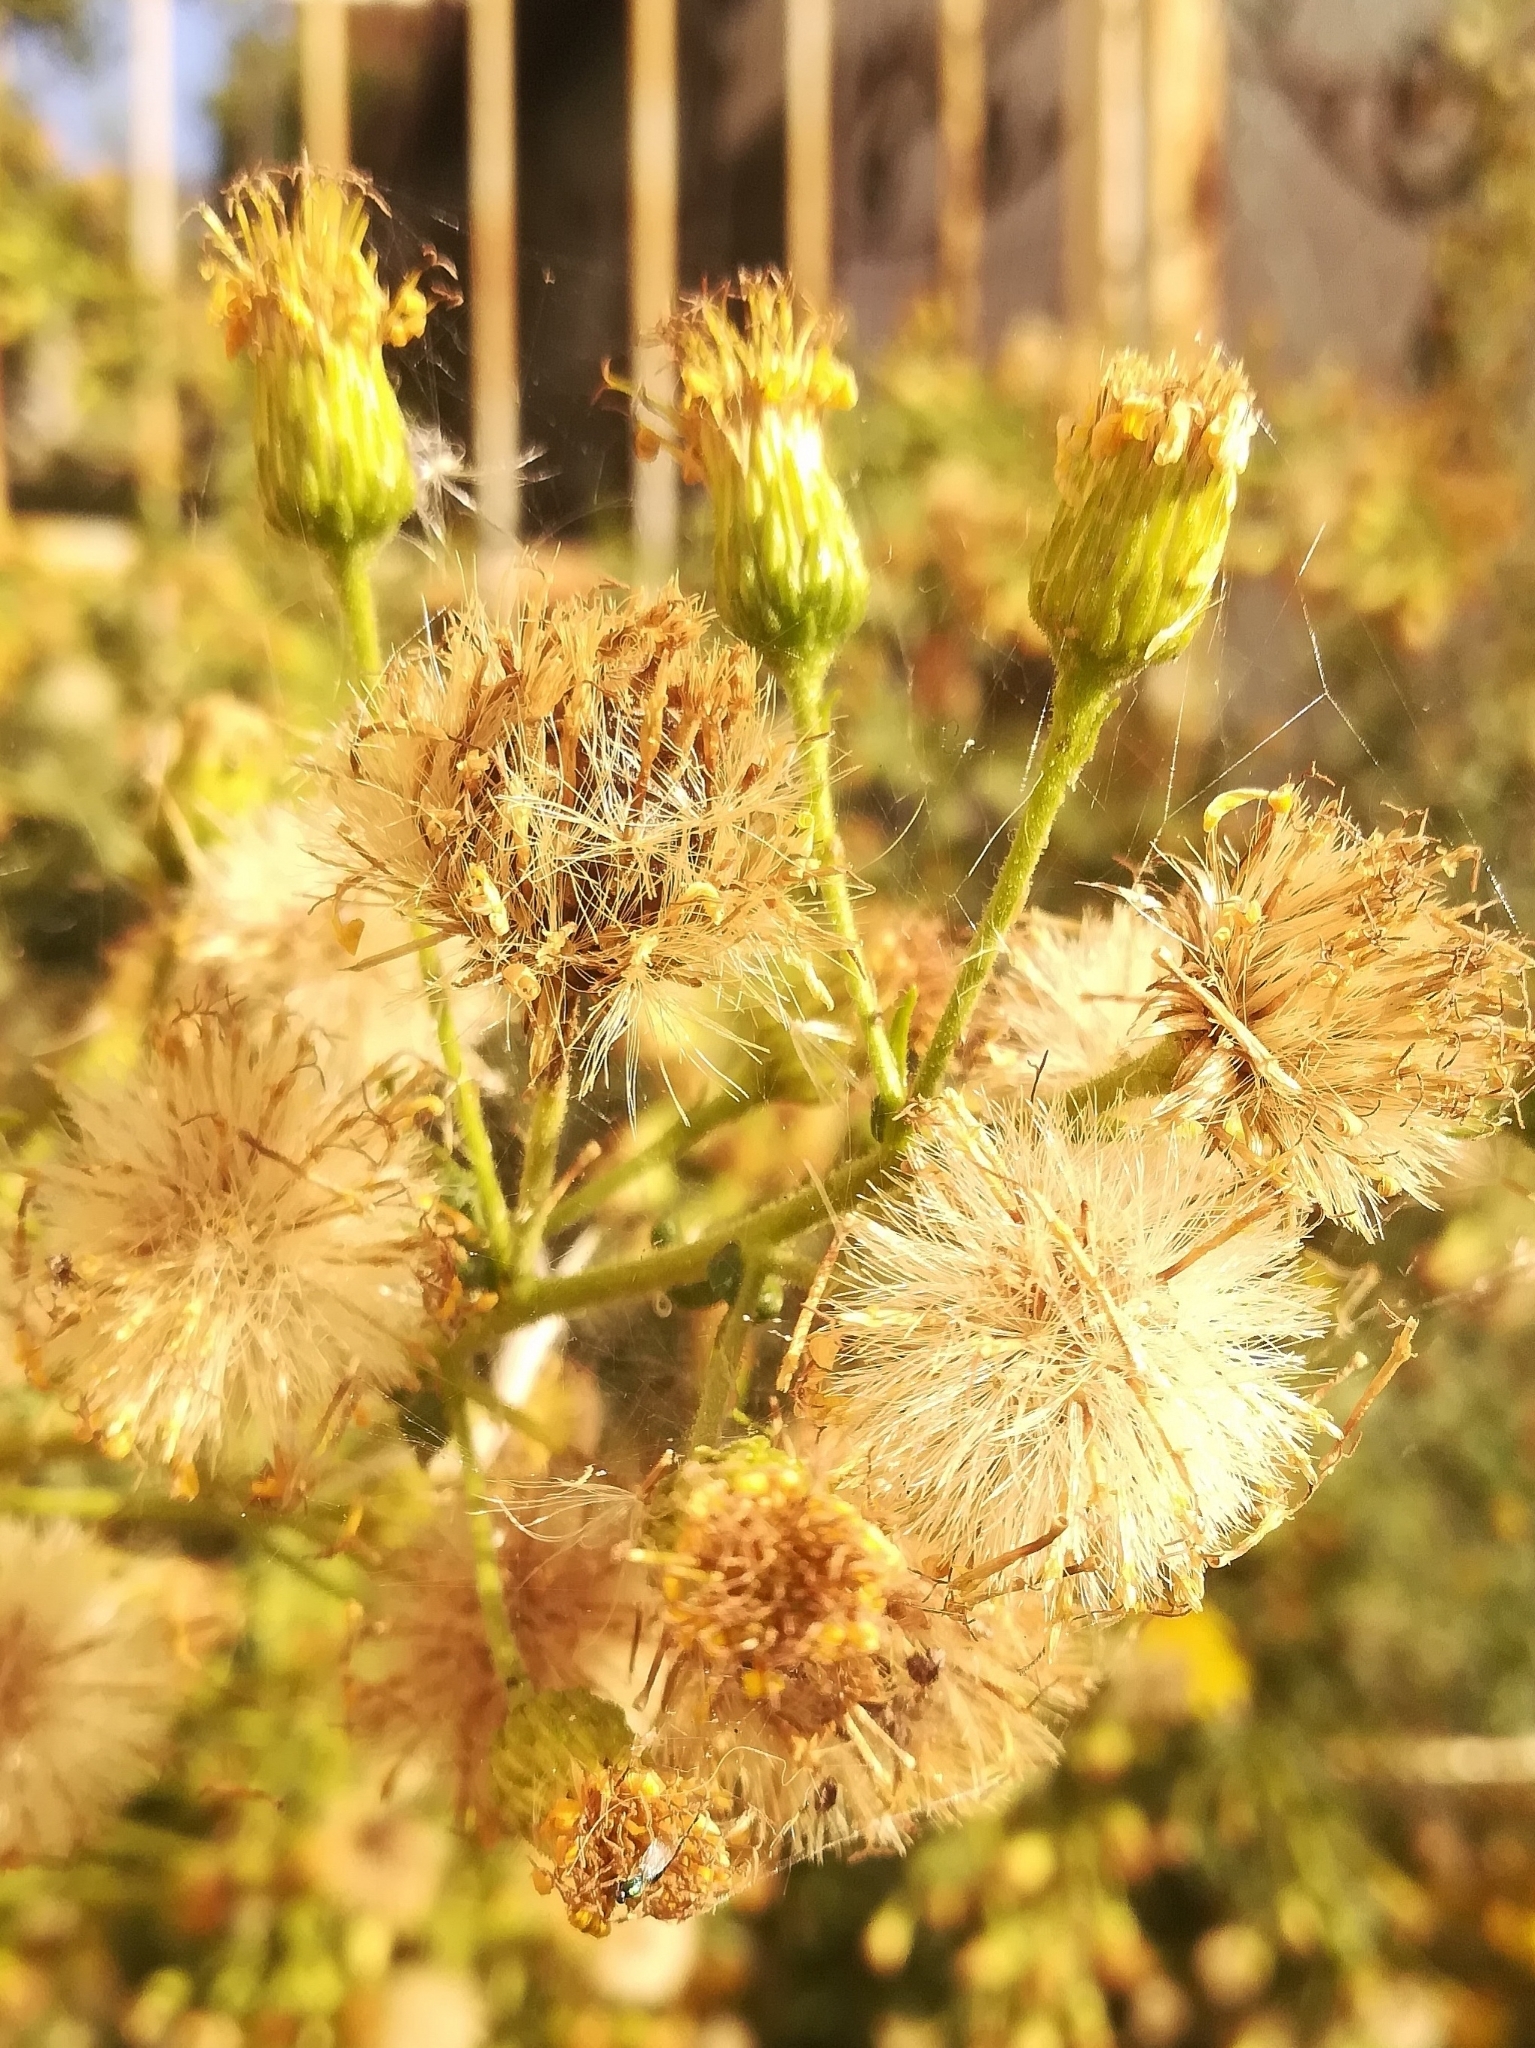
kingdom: Plantae
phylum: Tracheophyta
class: Magnoliopsida
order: Asterales
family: Asteraceae
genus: Dittrichia
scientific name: Dittrichia viscosa
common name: Woody fleabane
